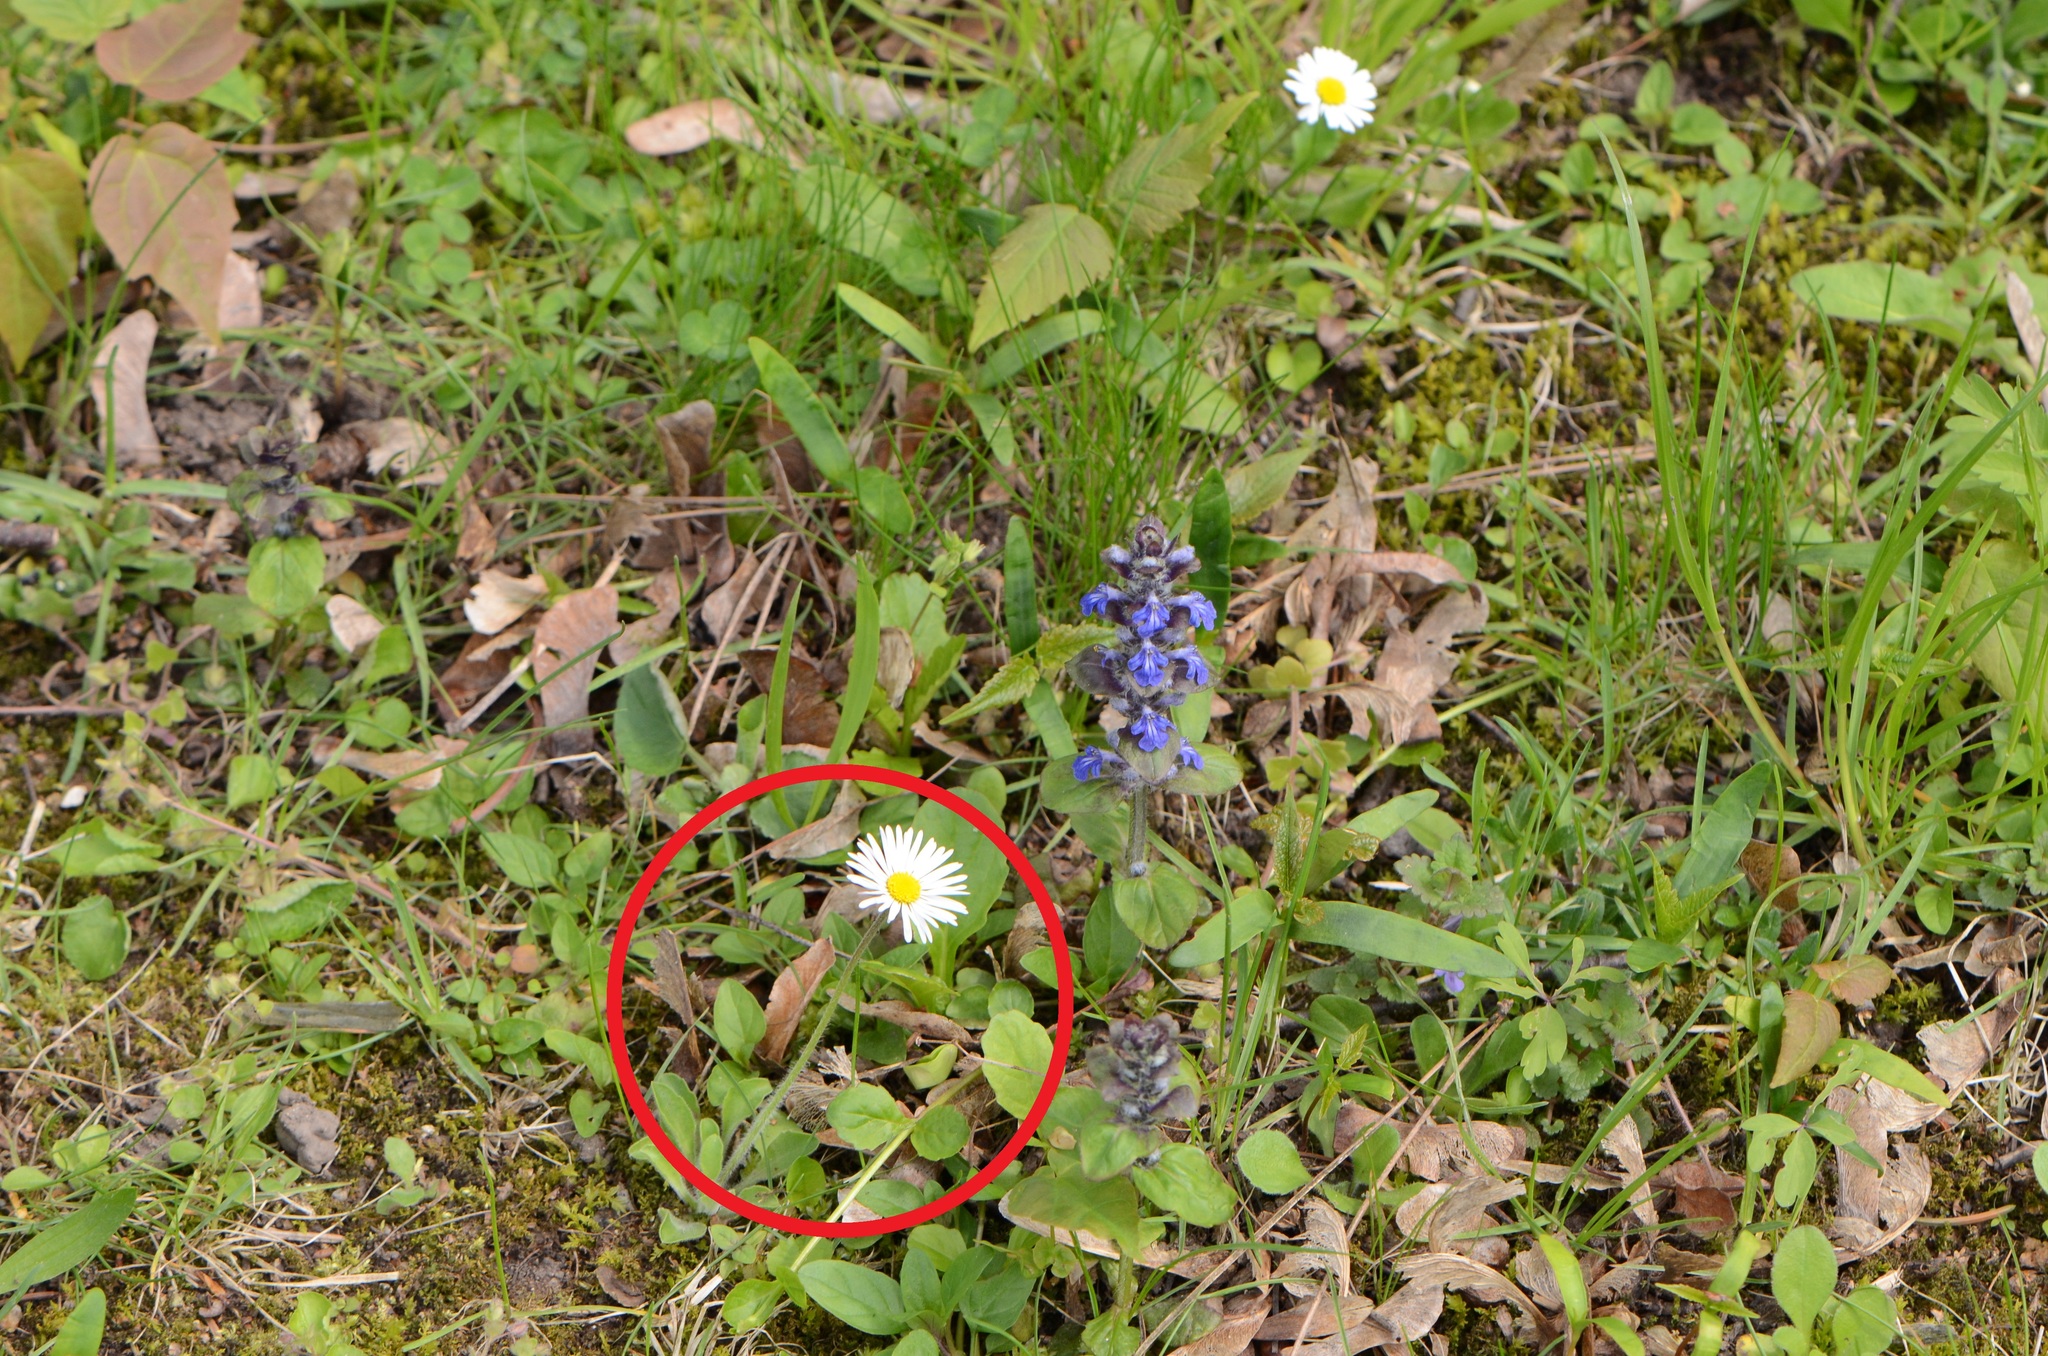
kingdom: Plantae
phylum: Tracheophyta
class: Magnoliopsida
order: Asterales
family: Asteraceae
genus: Bellis
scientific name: Bellis perennis
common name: Lawndaisy
